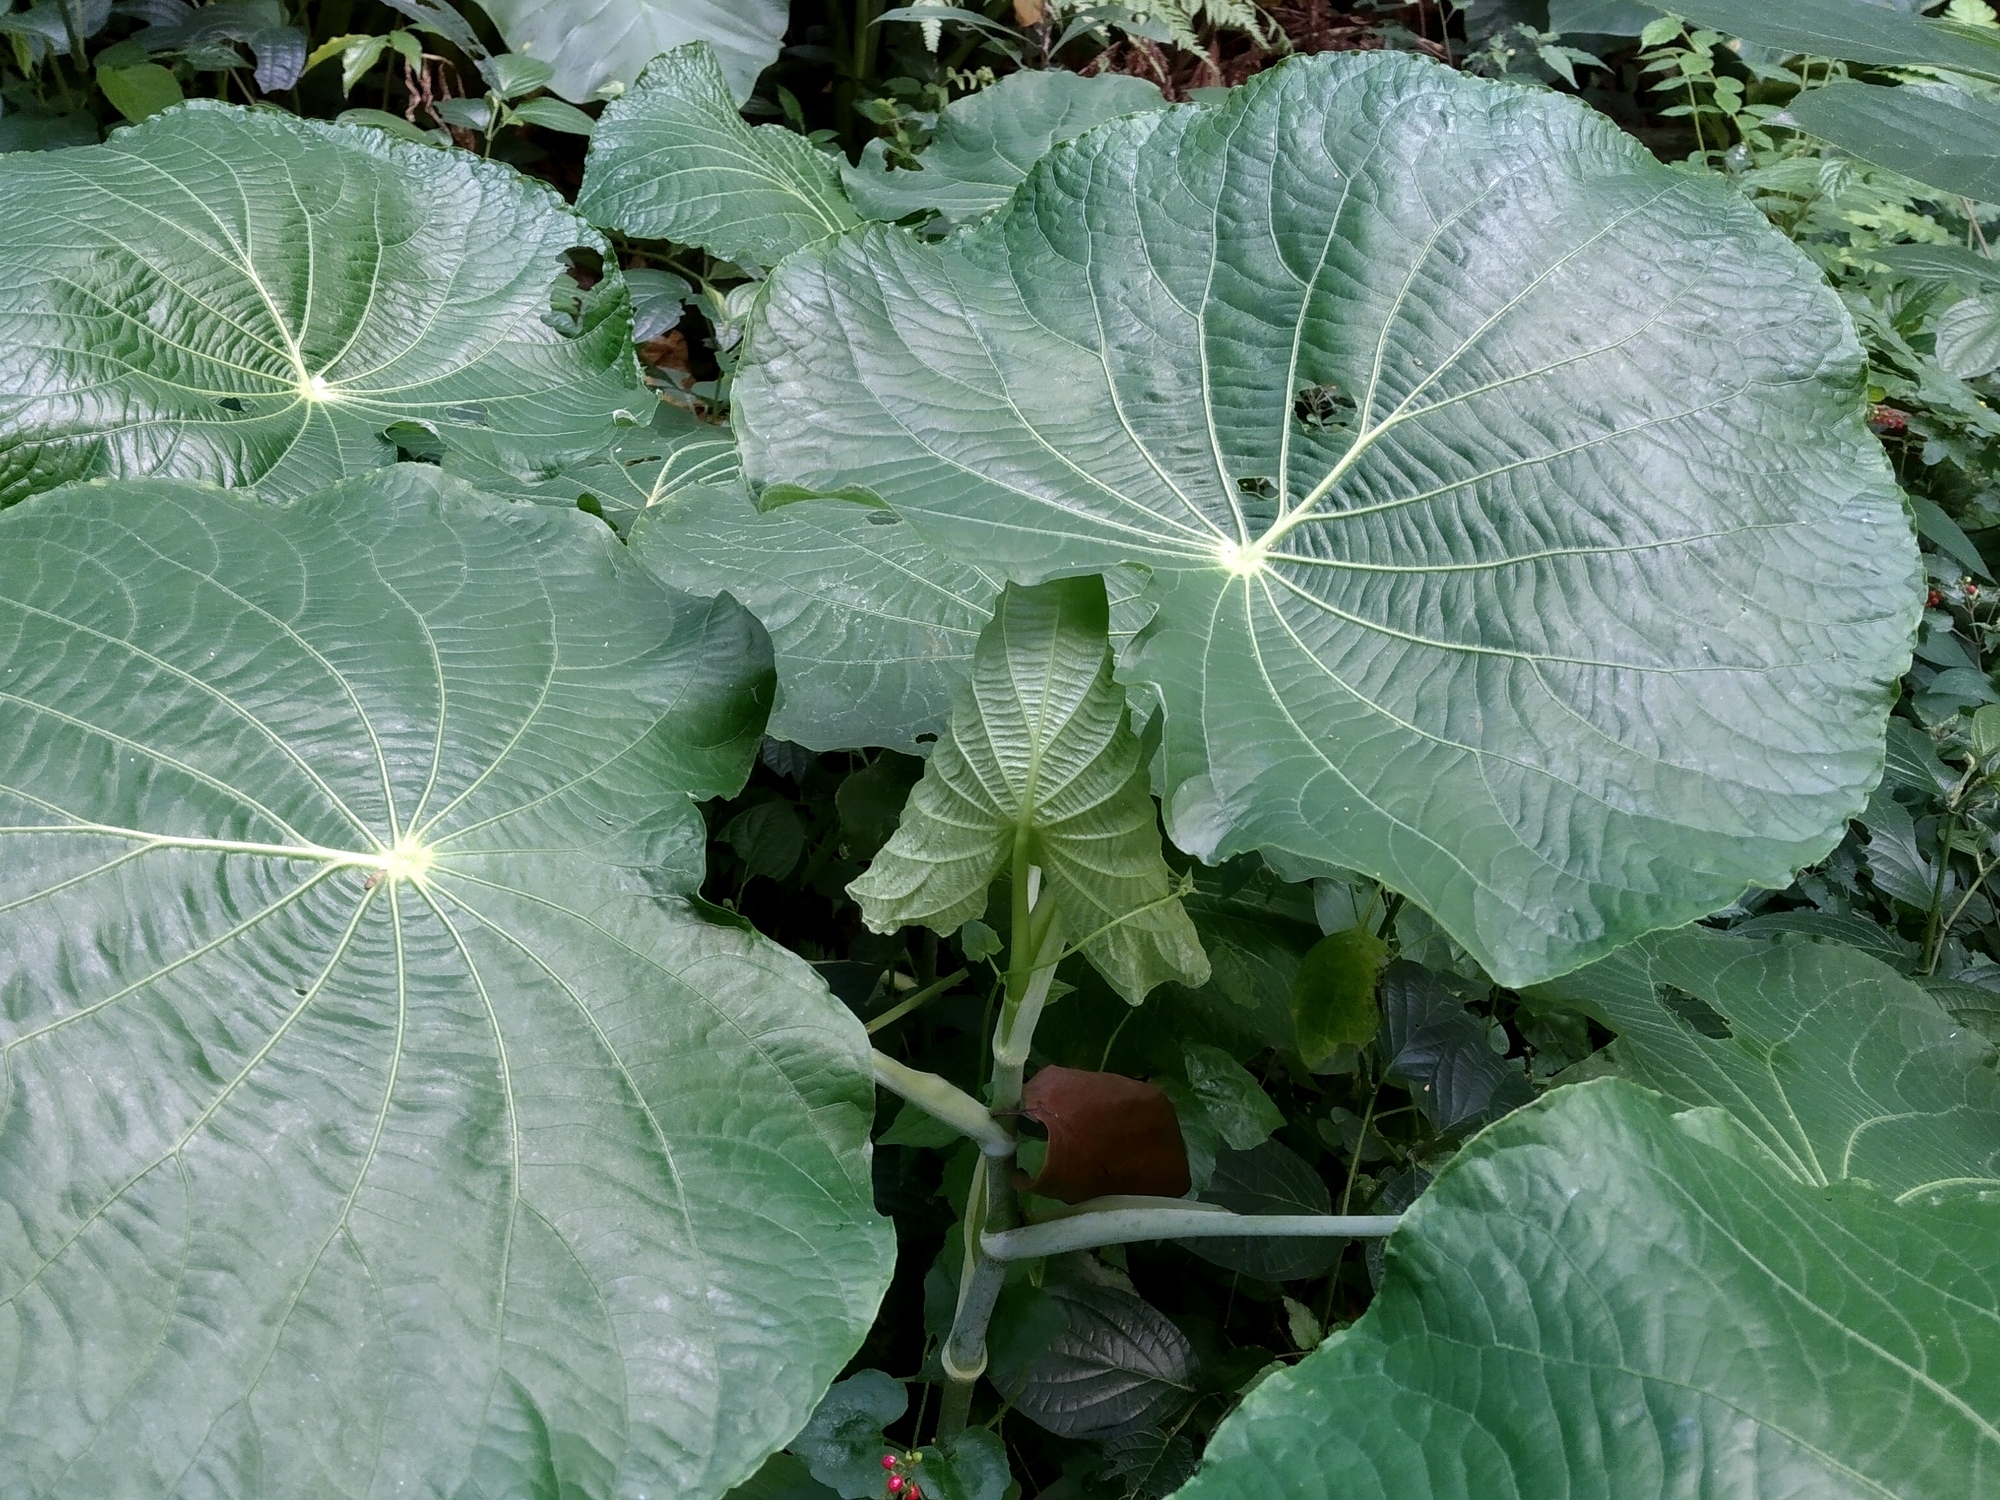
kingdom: Plantae
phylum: Tracheophyta
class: Magnoliopsida
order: Piperales
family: Piperaceae
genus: Piper
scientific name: Piper peltatum
